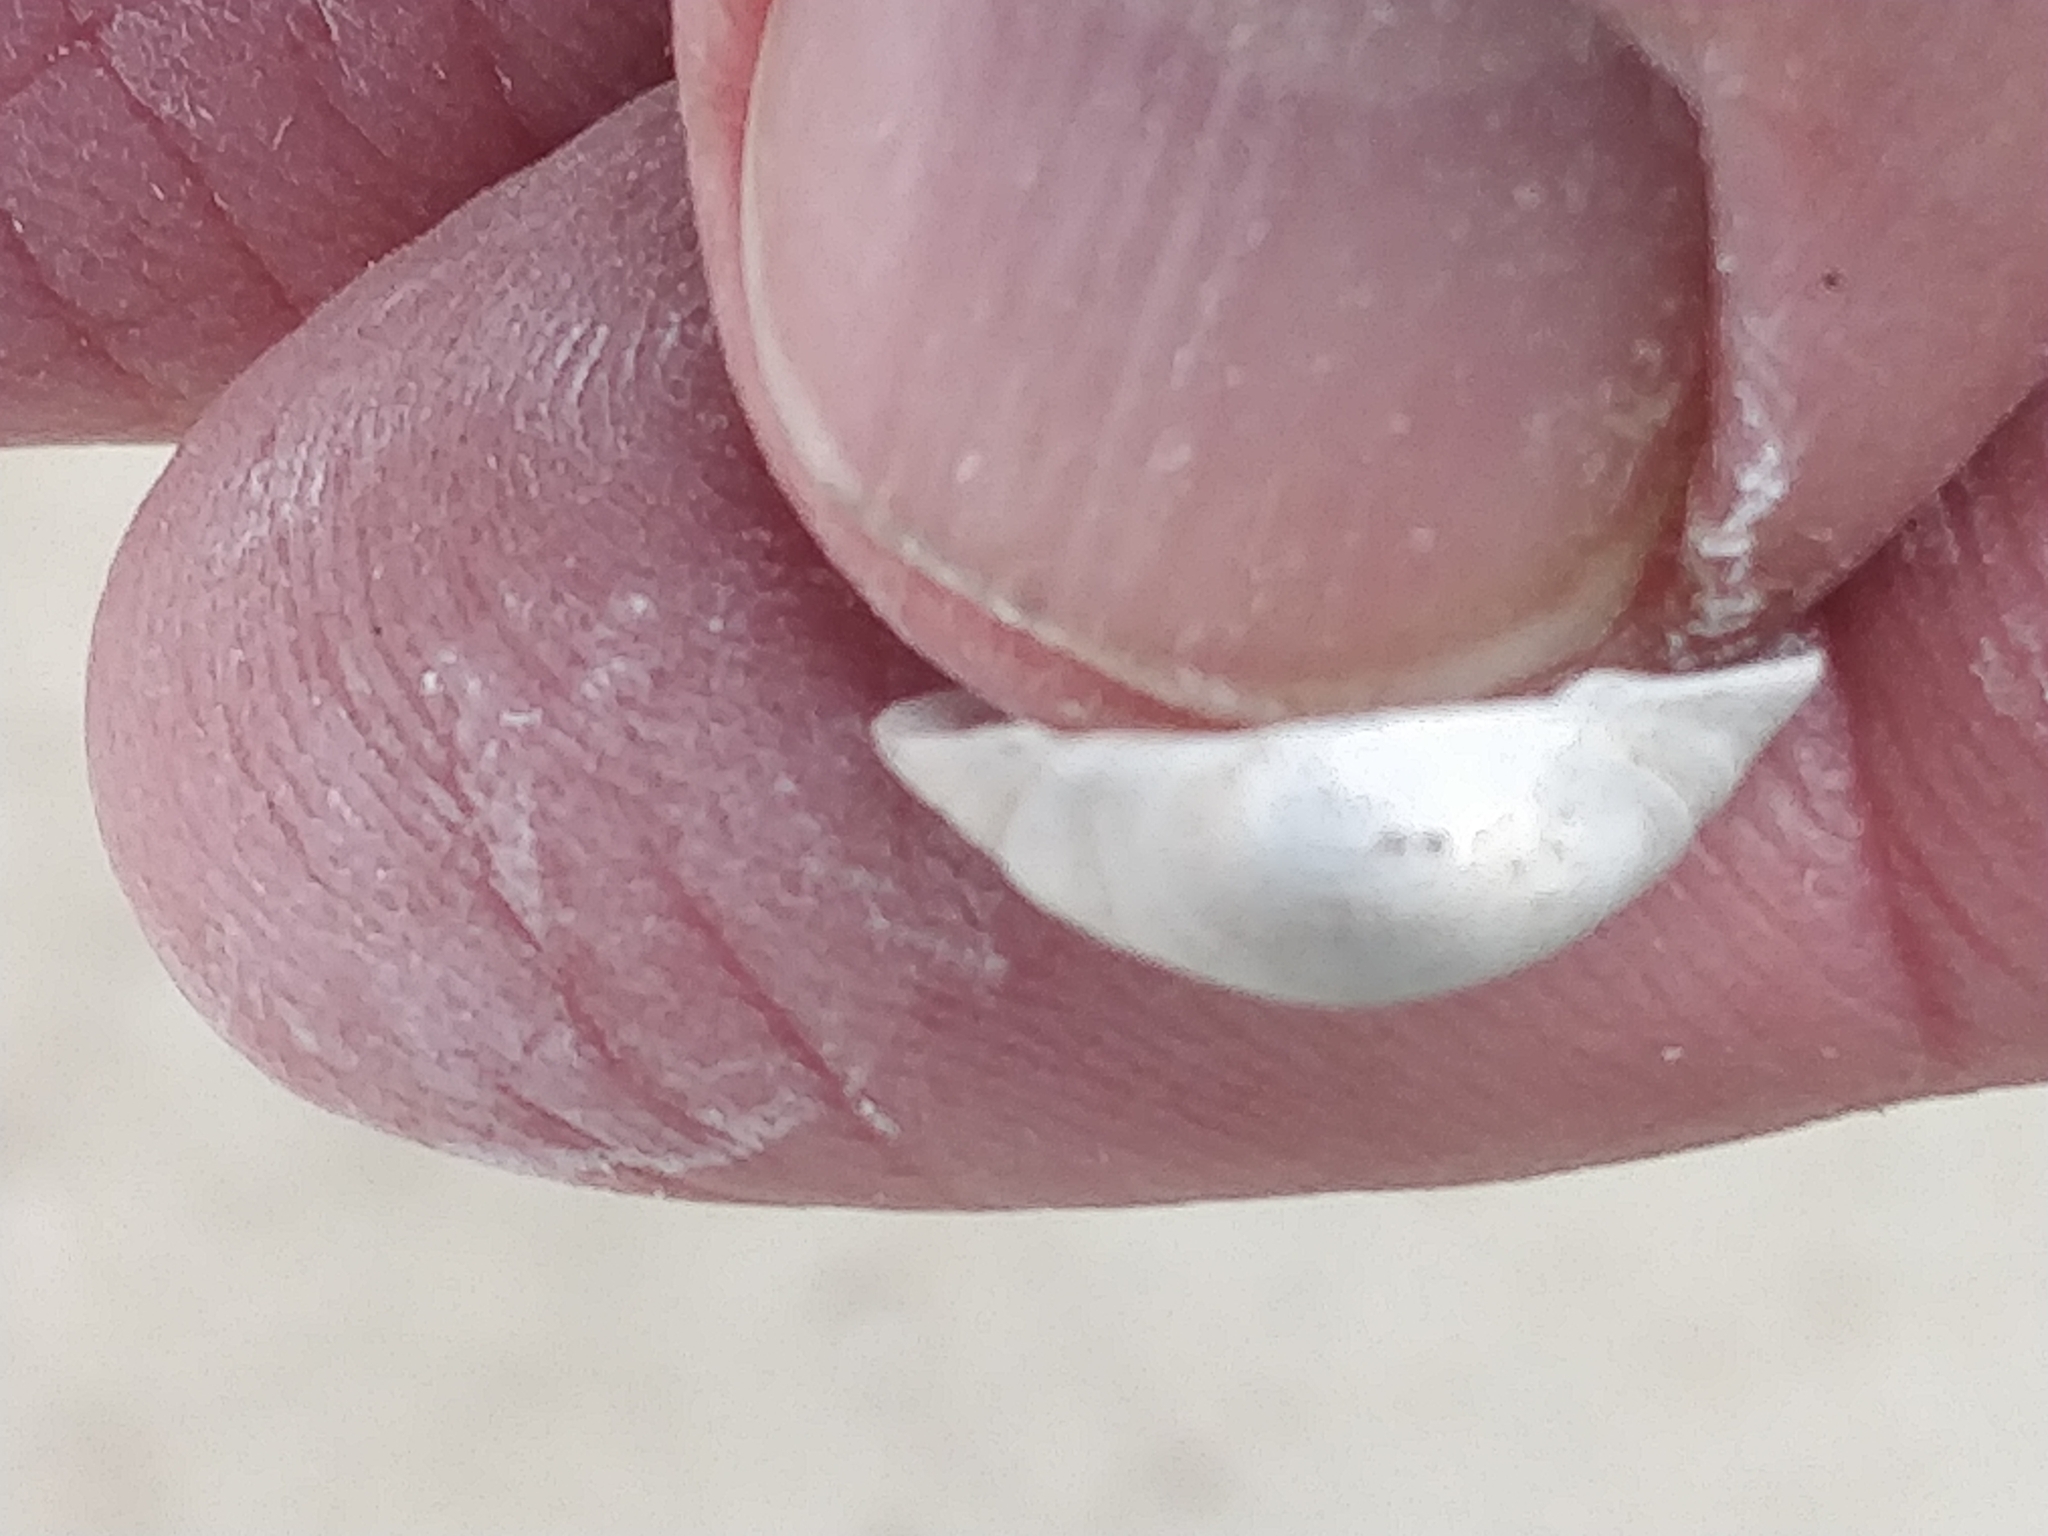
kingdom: Animalia
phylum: Mollusca
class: Bivalvia
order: Sphaeriida
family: Sphaeriidae
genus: Sphaerium
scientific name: Sphaerium striatinum
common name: Striated fingernailclam
